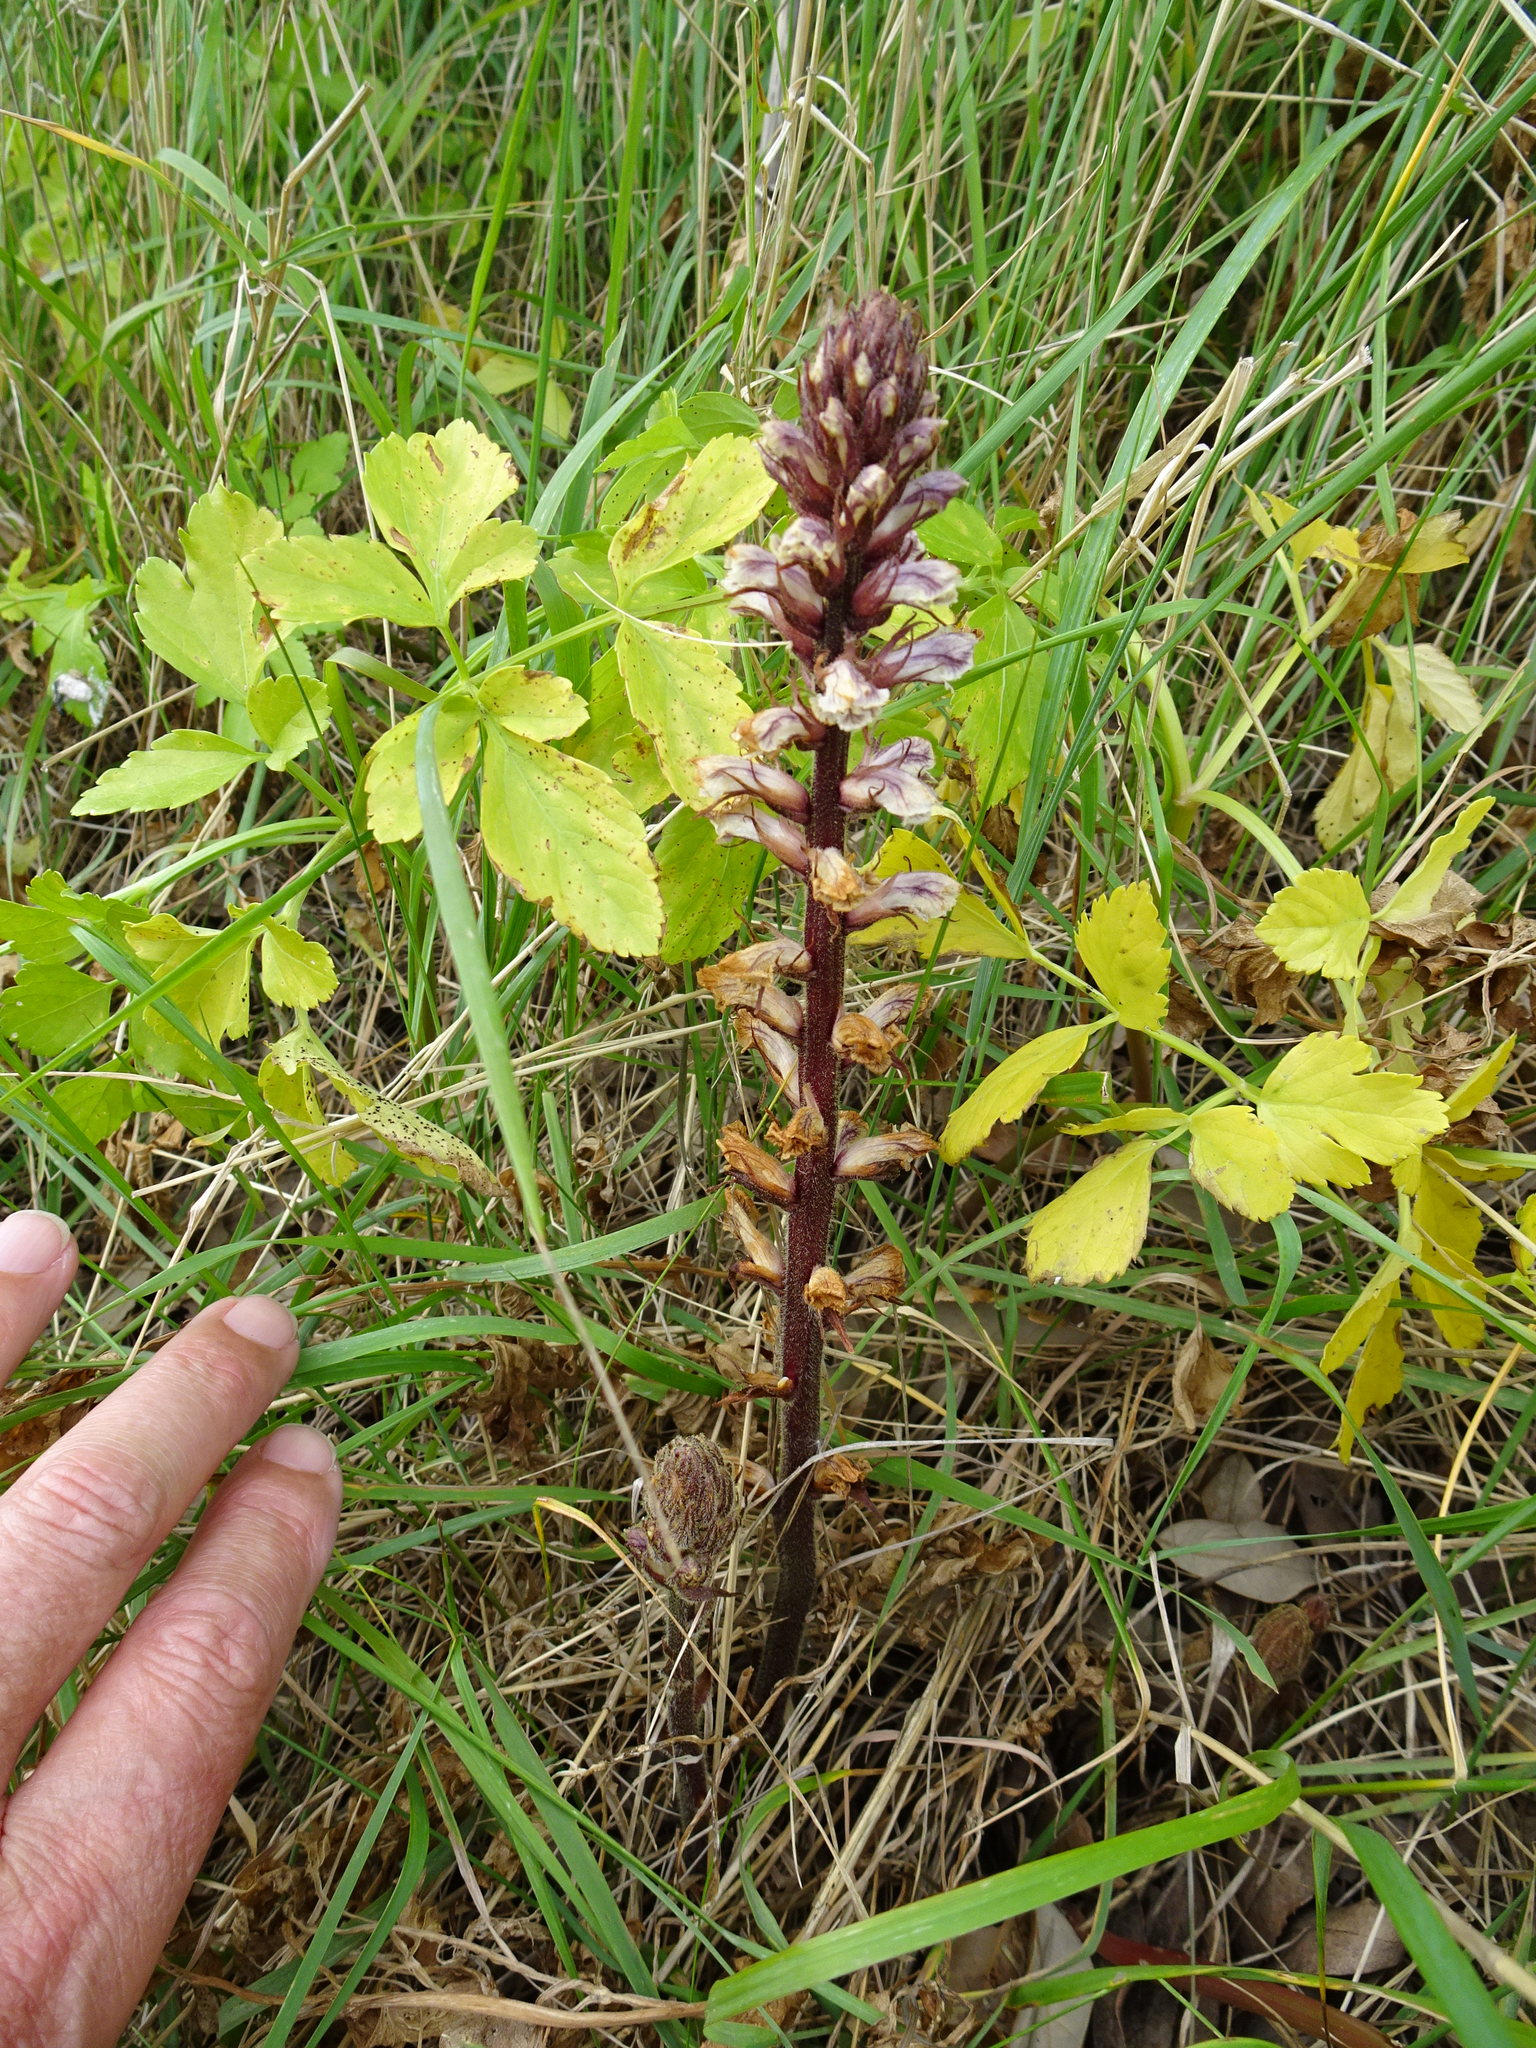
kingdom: Plantae
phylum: Tracheophyta
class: Magnoliopsida
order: Lamiales
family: Orobanchaceae
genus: Orobanche
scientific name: Orobanche minor
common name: Common broomrape
